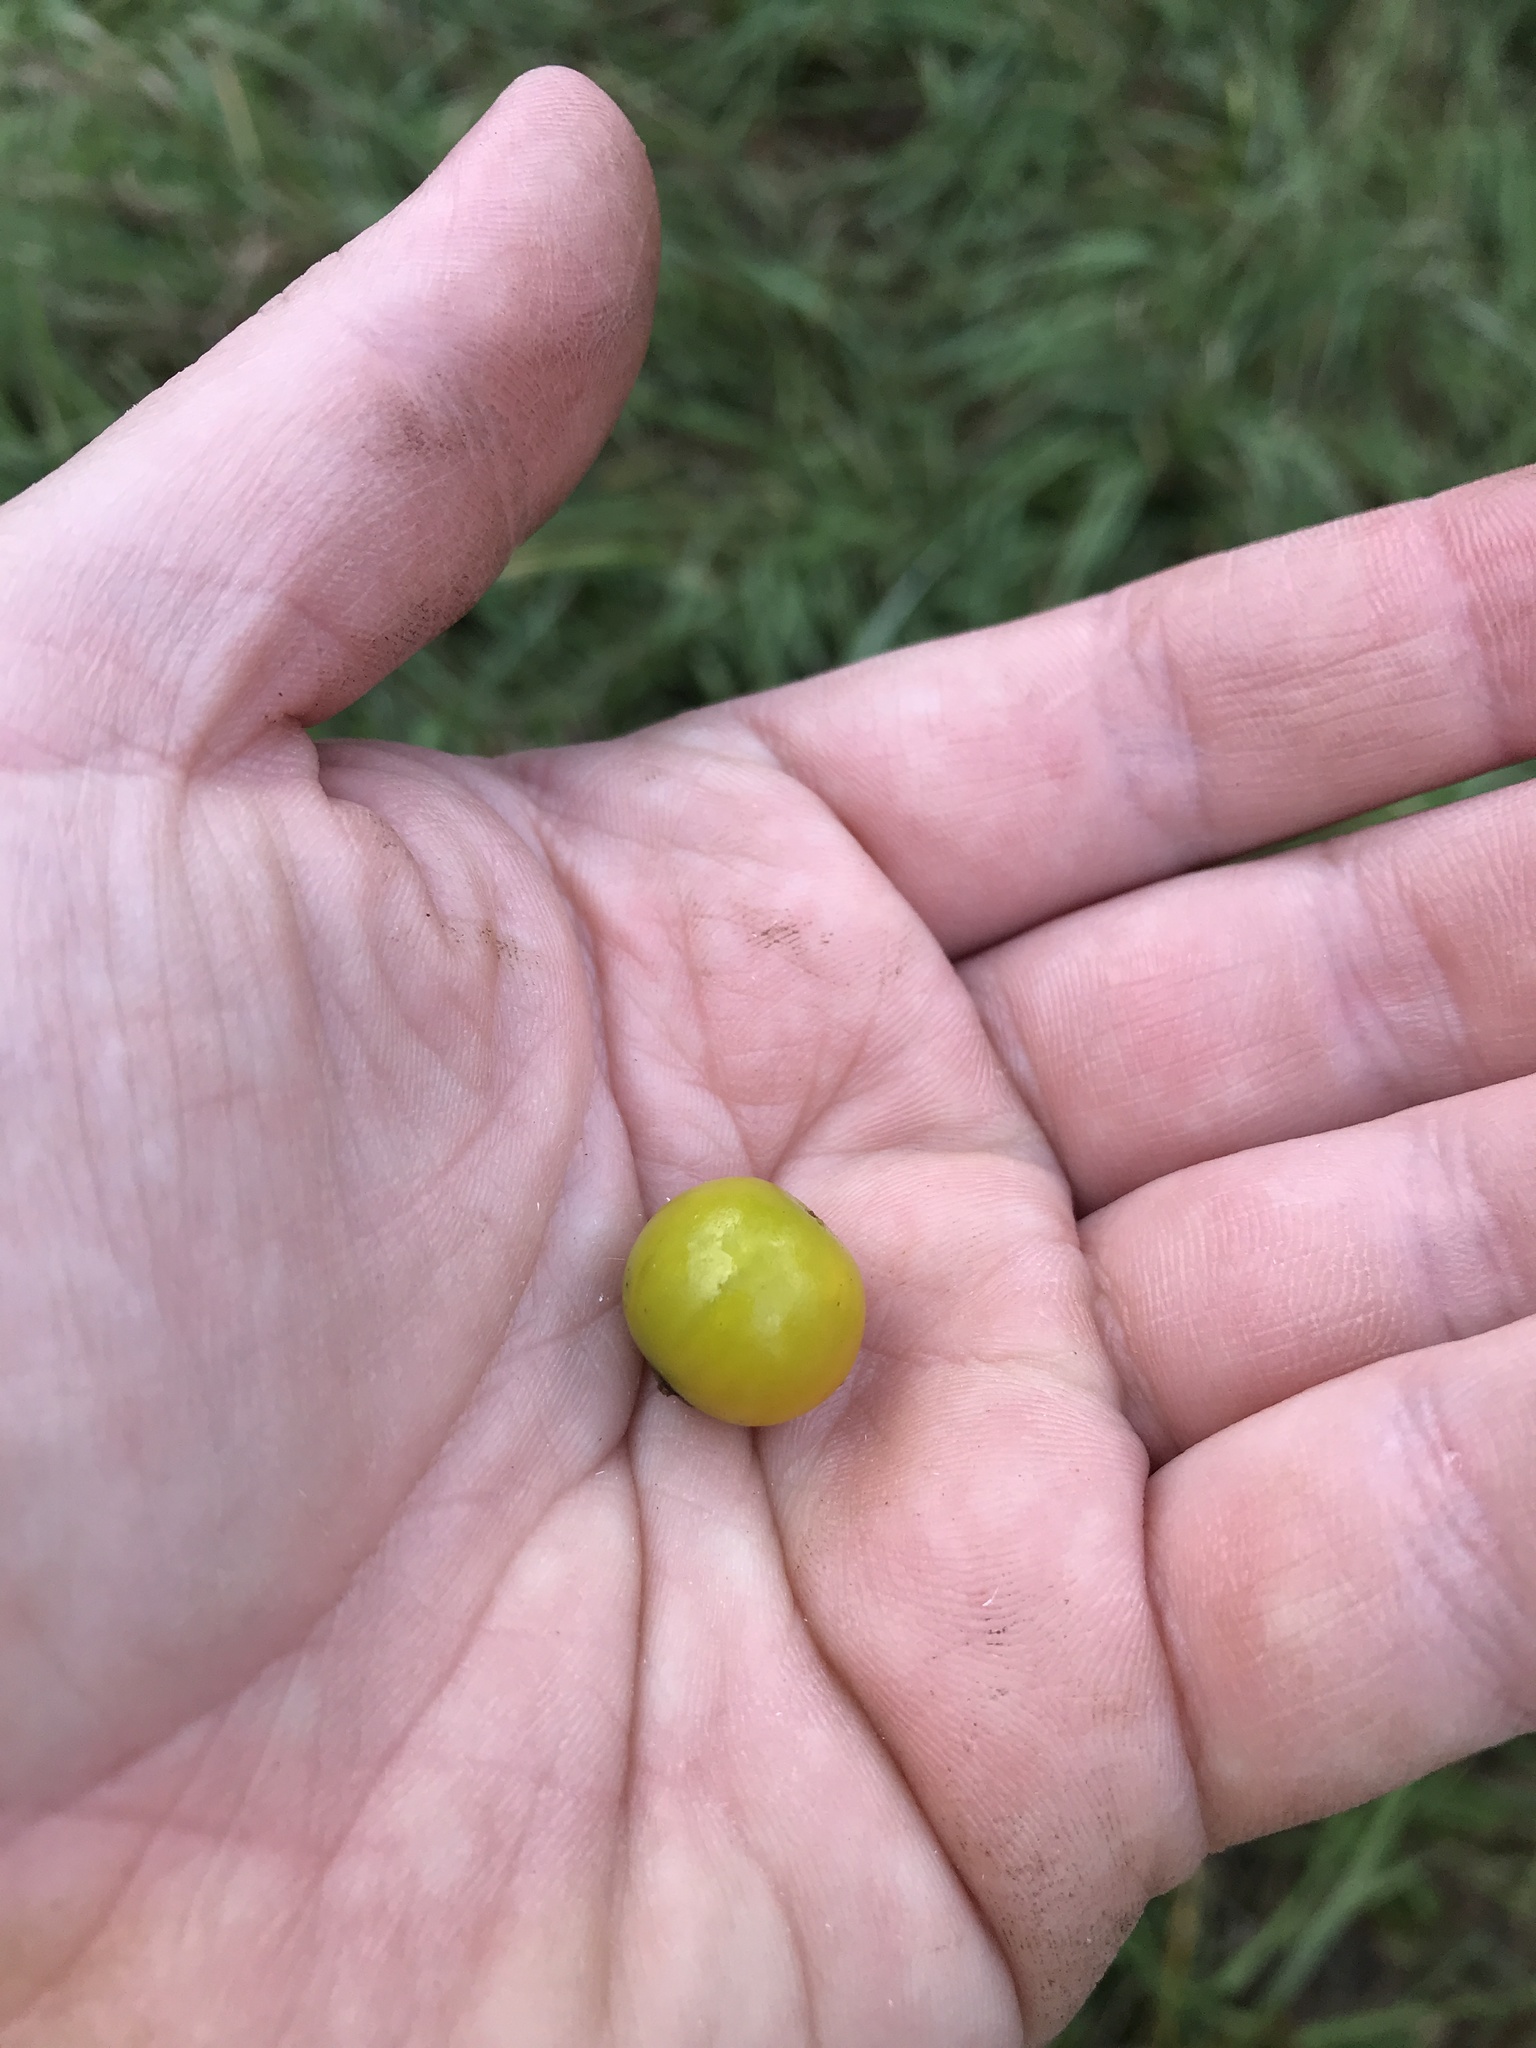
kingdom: Plantae
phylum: Tracheophyta
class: Magnoliopsida
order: Solanales
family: Solanaceae
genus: Solanum
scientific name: Solanum carolinense
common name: Horse-nettle
